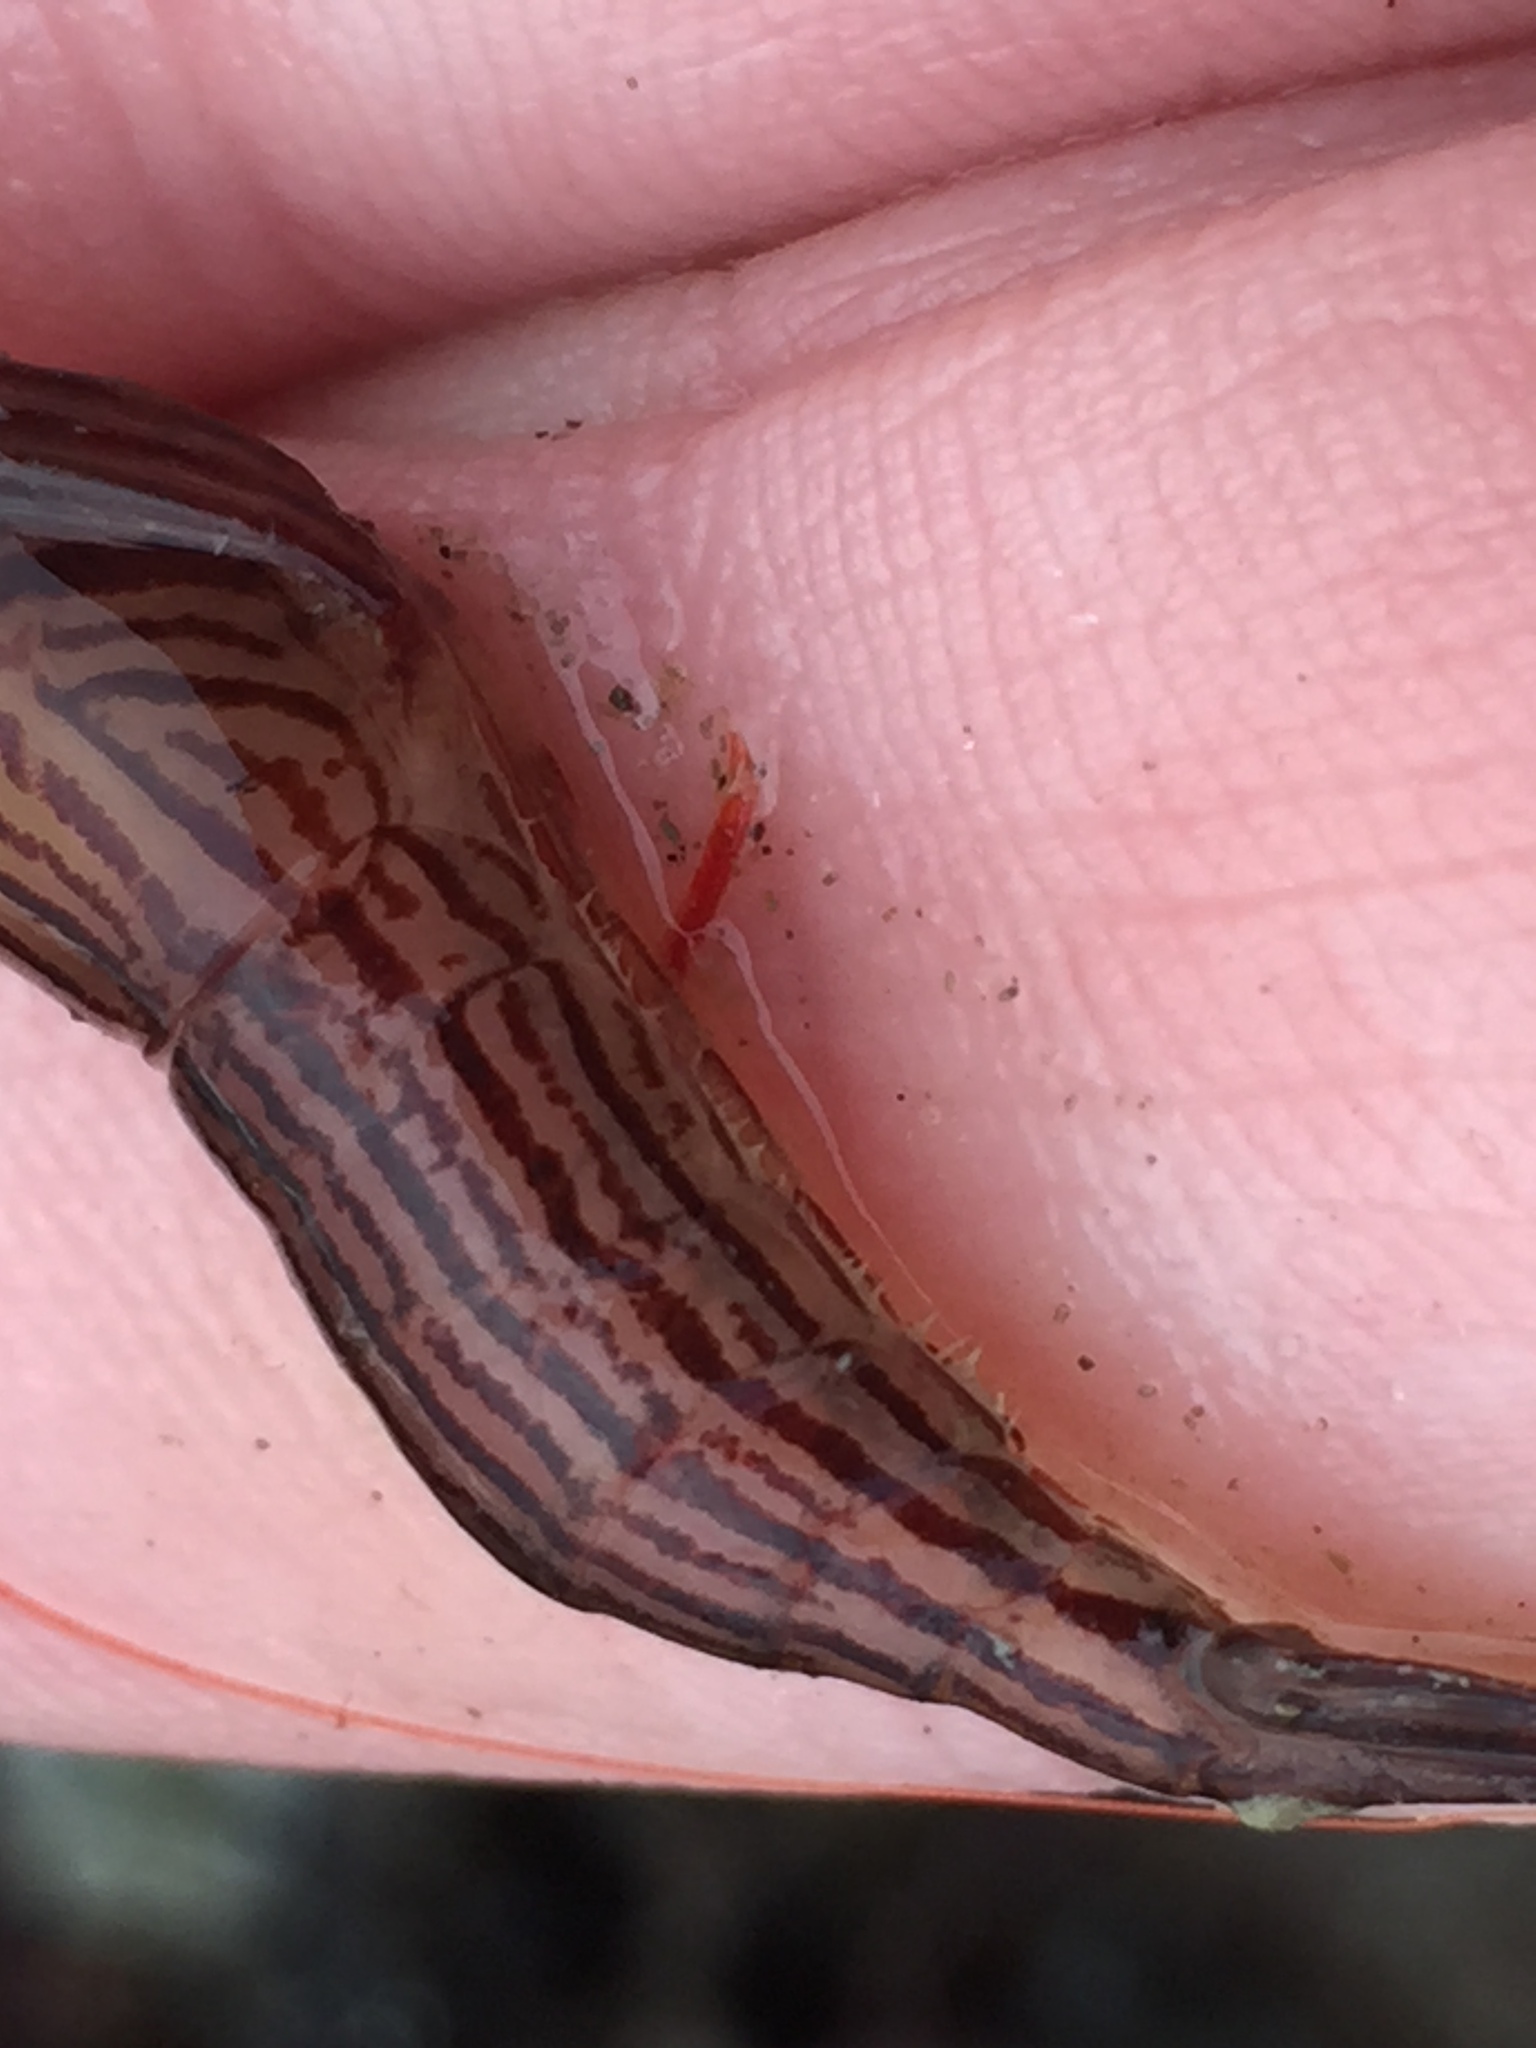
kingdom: Animalia
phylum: Arthropoda
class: Malacostraca
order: Decapoda
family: Lysmatidae
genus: Lysmata
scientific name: Lysmata vittata
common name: Indian lined shrimp
